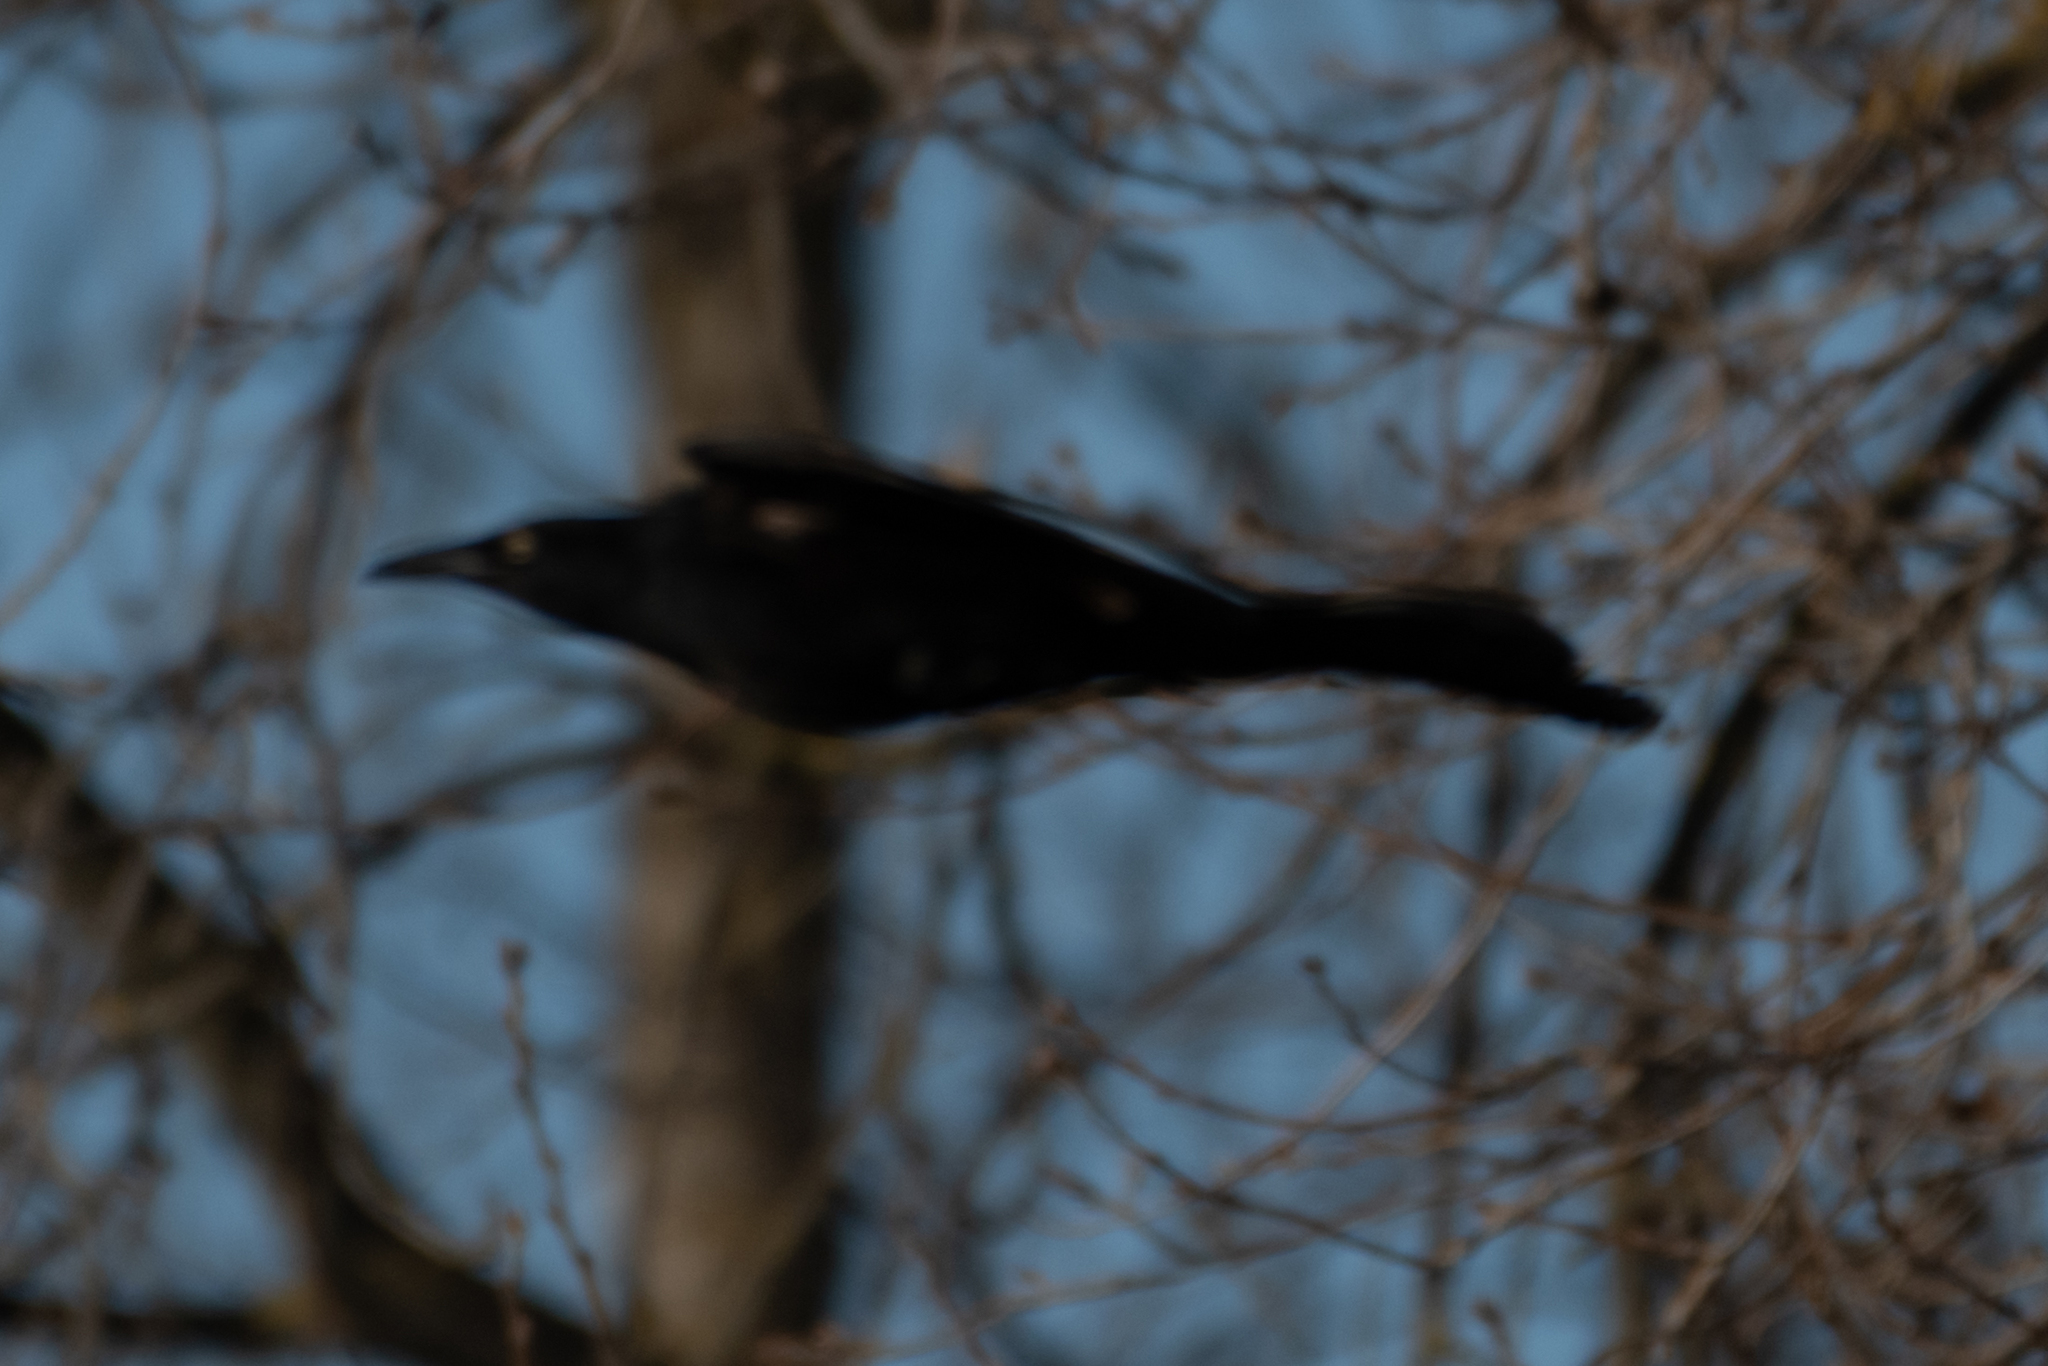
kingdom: Animalia
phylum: Chordata
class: Aves
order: Passeriformes
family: Icteridae
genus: Quiscalus
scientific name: Quiscalus mexicanus
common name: Great-tailed grackle
